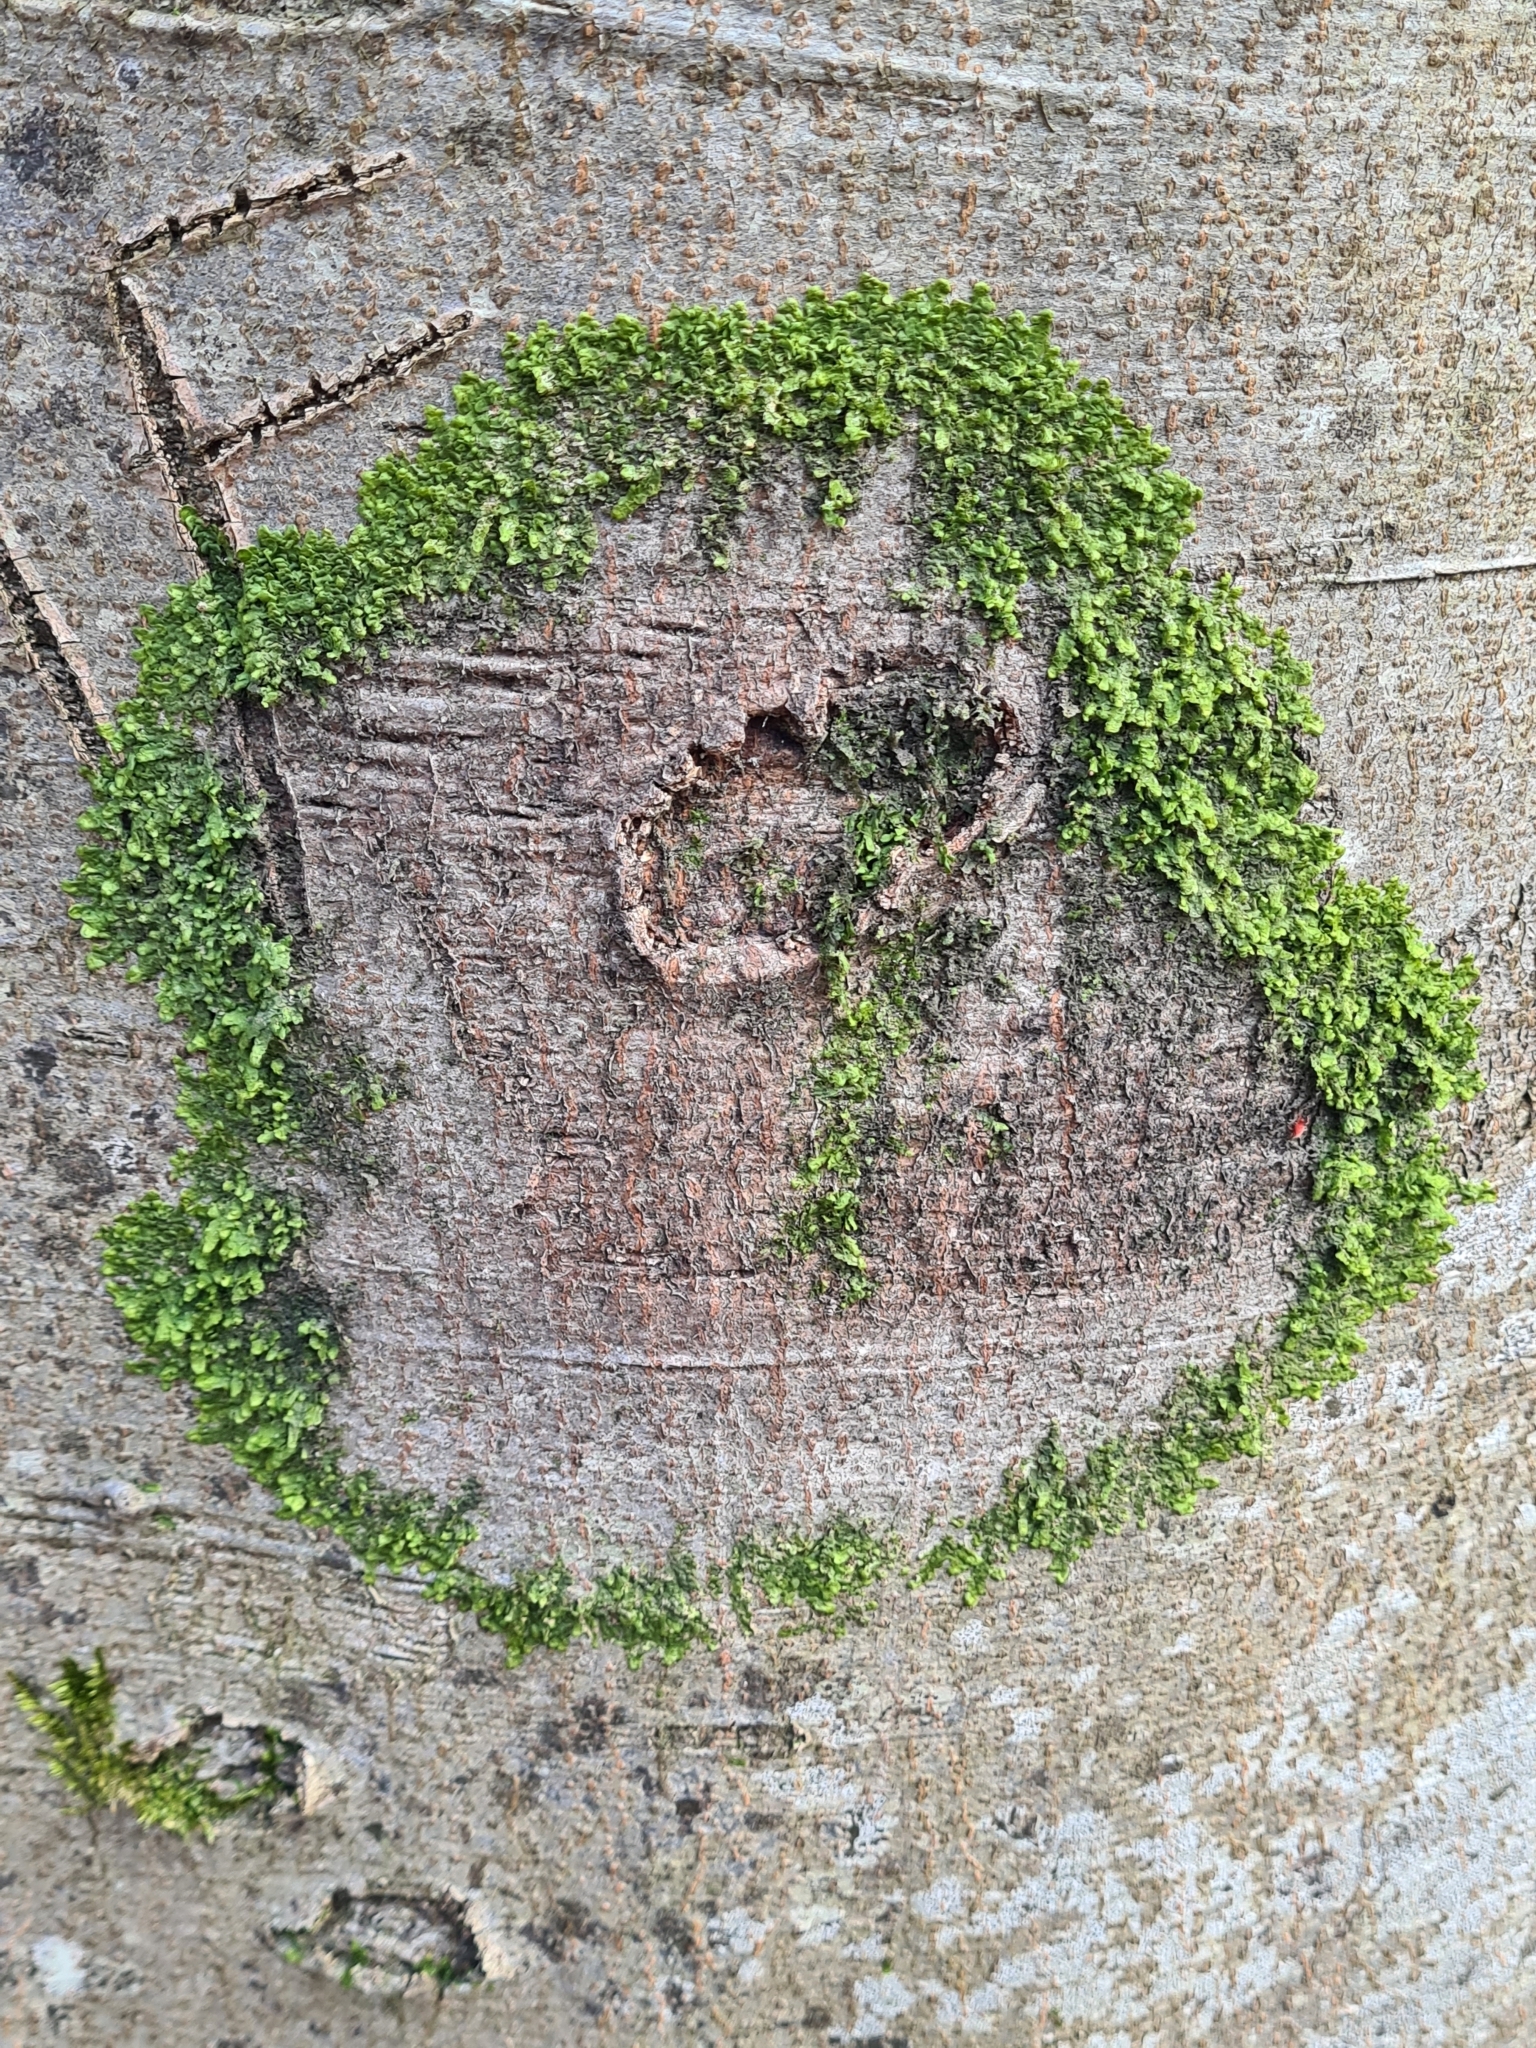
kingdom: Plantae
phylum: Marchantiophyta
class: Jungermanniopsida
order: Porellales
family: Radulaceae
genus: Radula
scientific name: Radula complanata
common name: Flat-leaved scalewort
